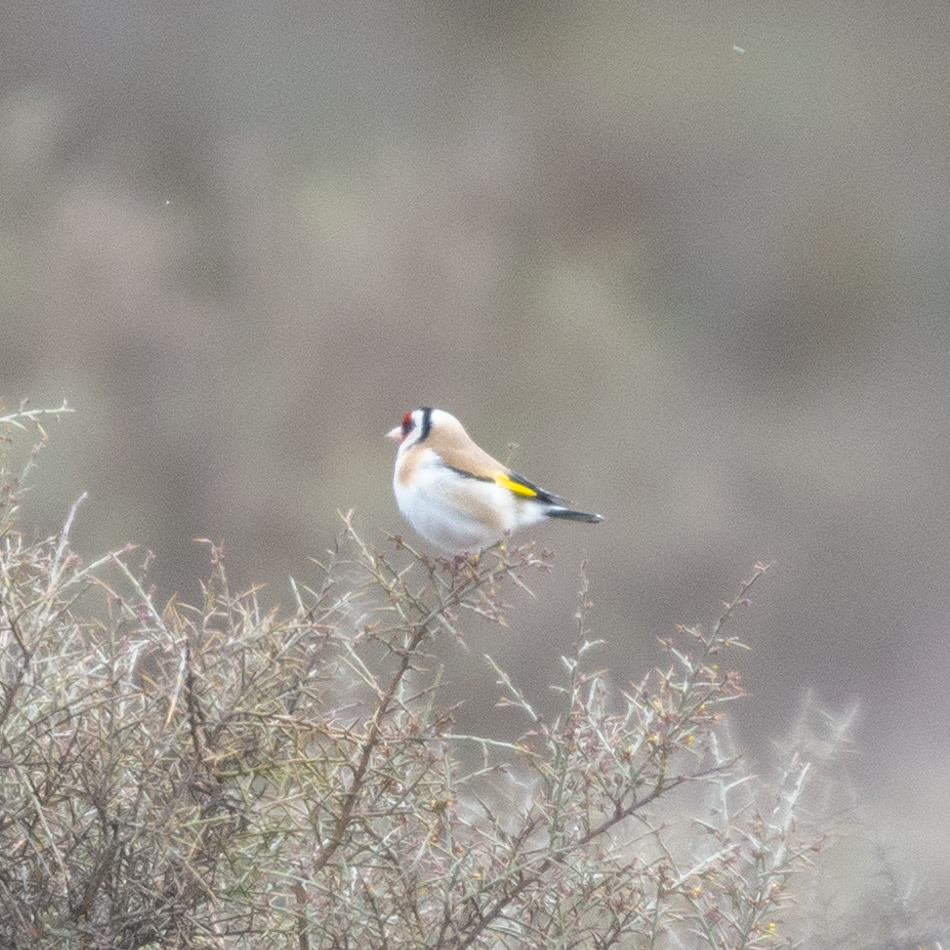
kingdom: Animalia
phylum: Chordata
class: Aves
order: Passeriformes
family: Fringillidae
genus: Carduelis
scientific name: Carduelis carduelis
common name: European goldfinch
